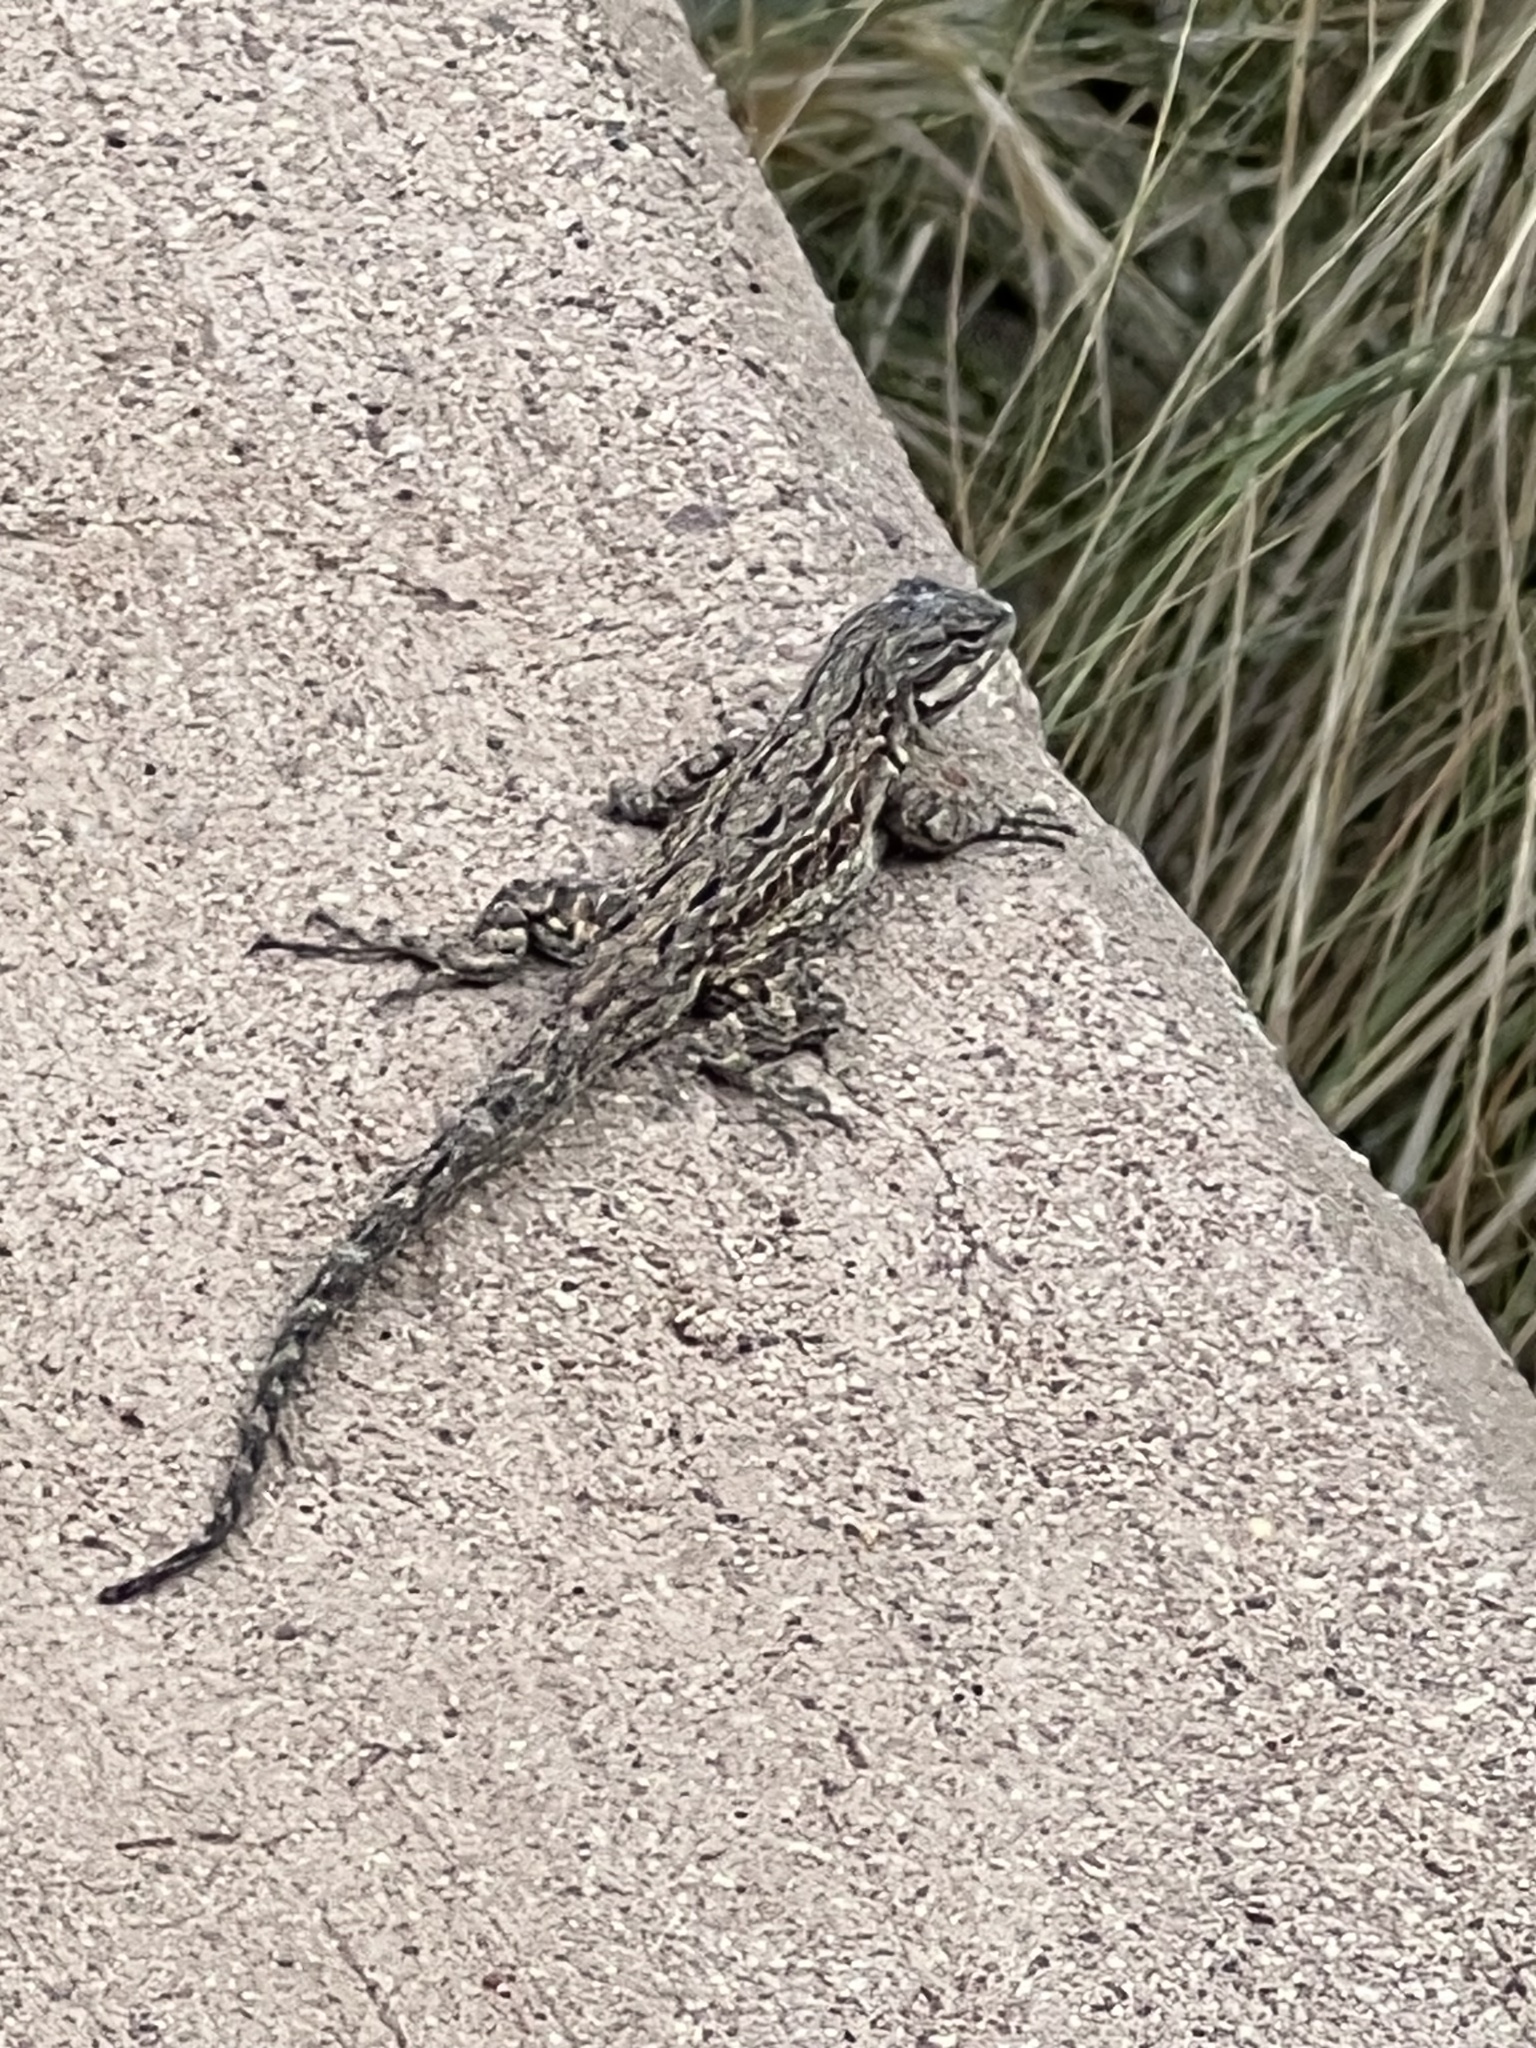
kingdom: Animalia
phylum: Chordata
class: Squamata
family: Phrynosomatidae
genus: Urosaurus
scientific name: Urosaurus ornatus
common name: Ornate tree lizard
